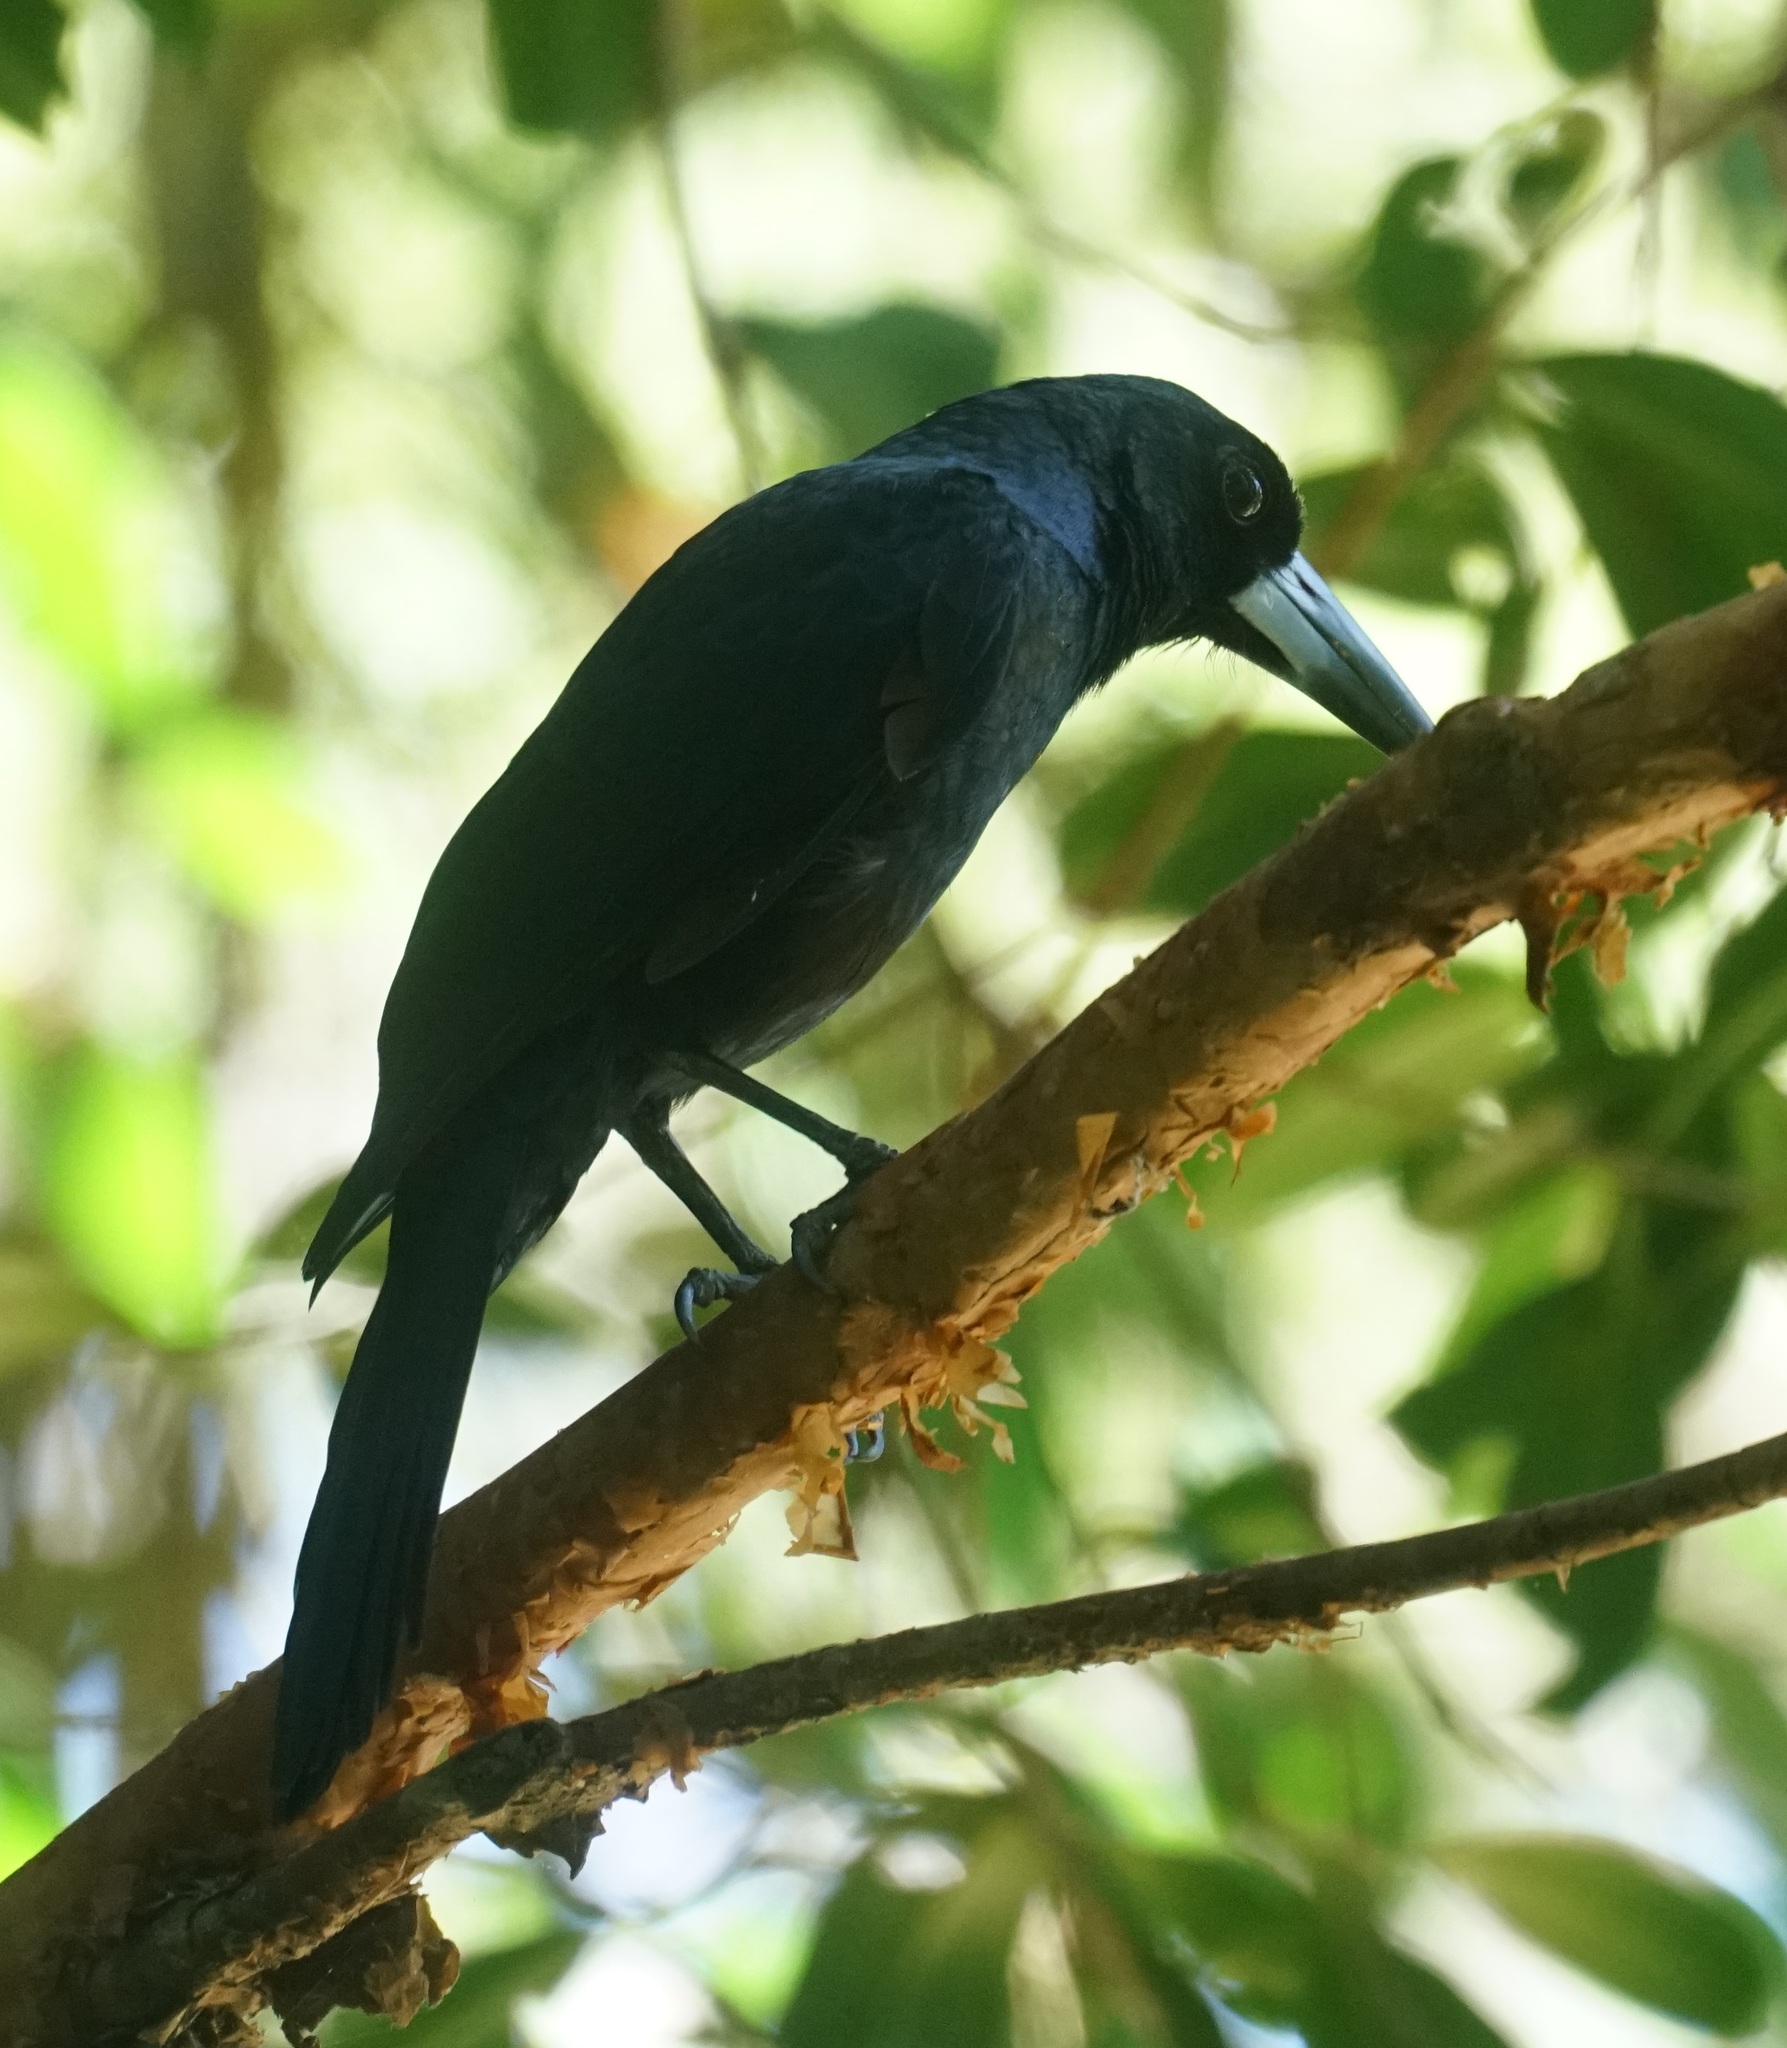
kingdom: Animalia
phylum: Chordata
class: Aves
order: Passeriformes
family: Artamidae
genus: Melloria
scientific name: Melloria quoyi
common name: Black butcherbird
